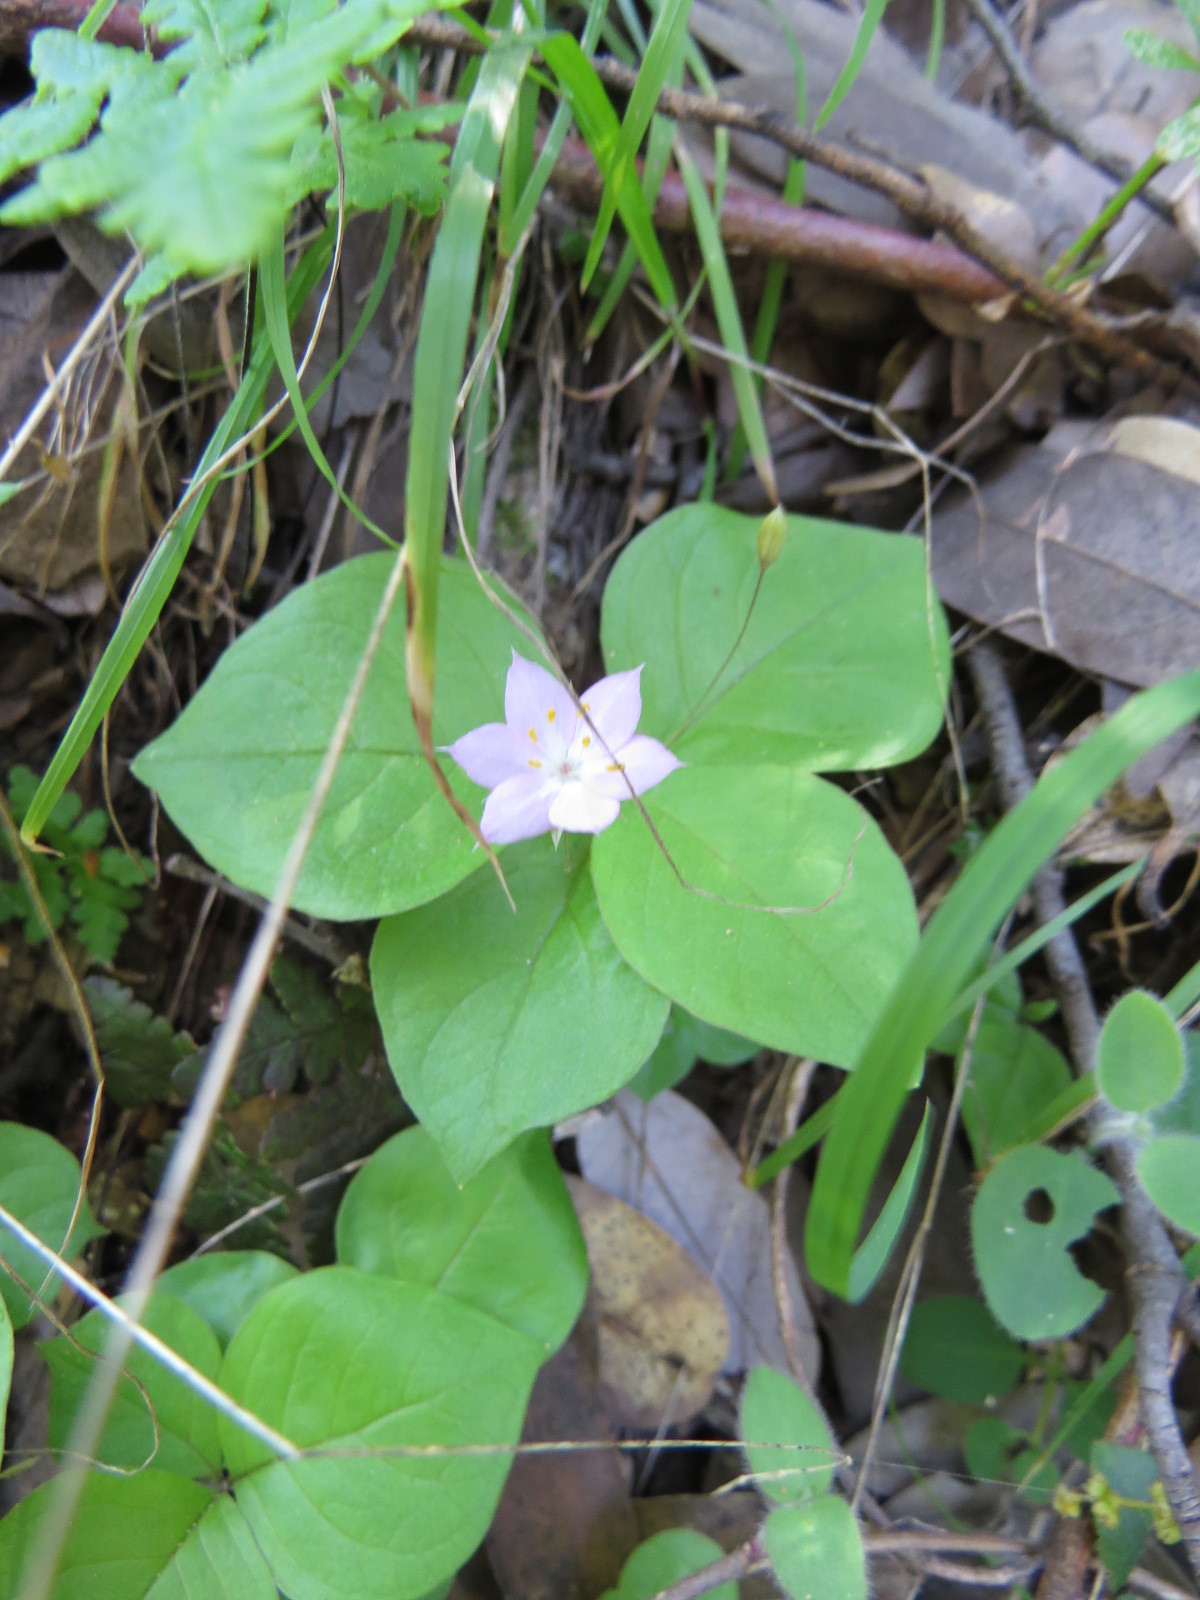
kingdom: Plantae
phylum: Tracheophyta
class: Magnoliopsida
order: Ericales
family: Primulaceae
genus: Lysimachia
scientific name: Lysimachia latifolia
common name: Pacific starflower
